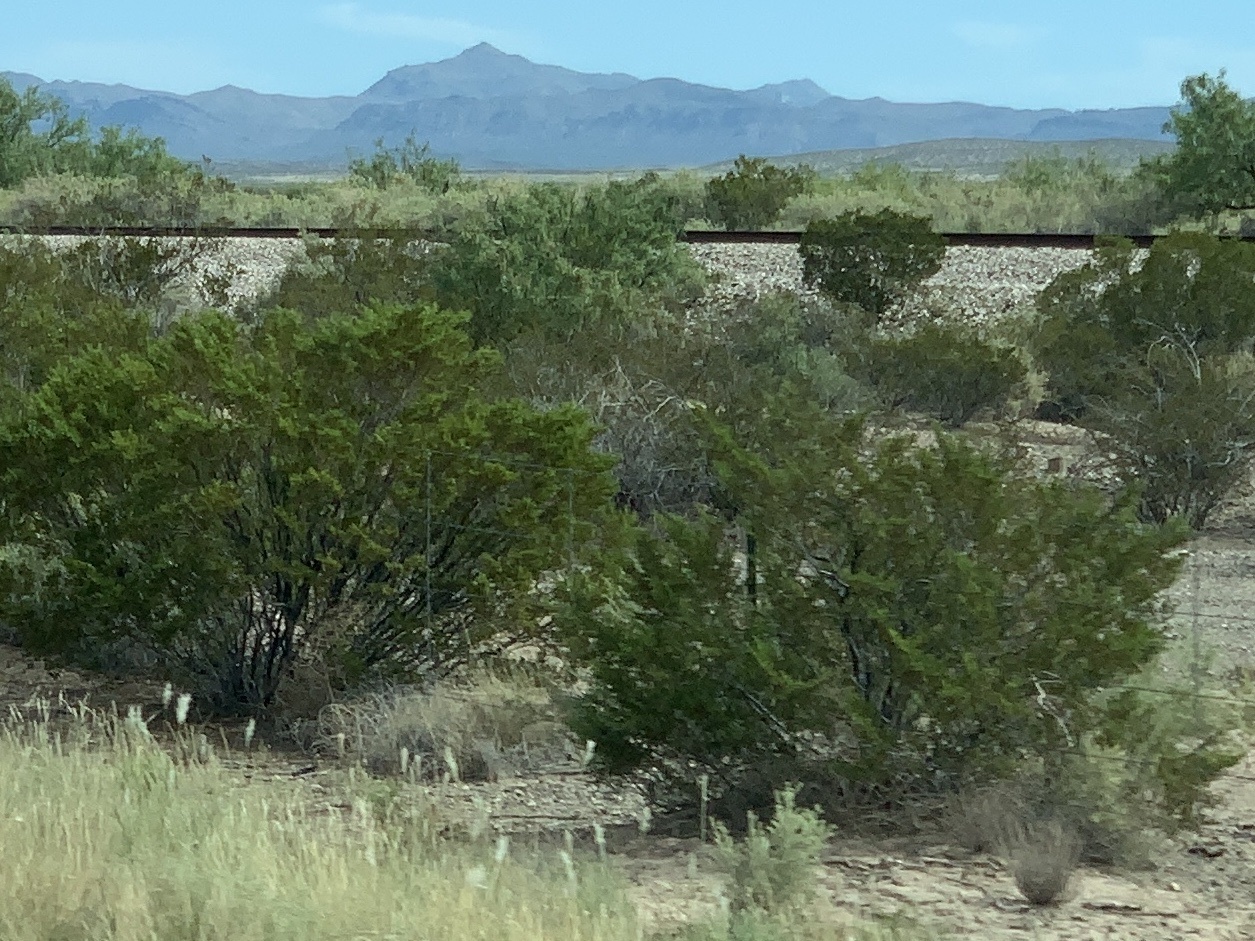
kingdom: Plantae
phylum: Tracheophyta
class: Magnoliopsida
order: Zygophyllales
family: Zygophyllaceae
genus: Larrea
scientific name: Larrea tridentata
